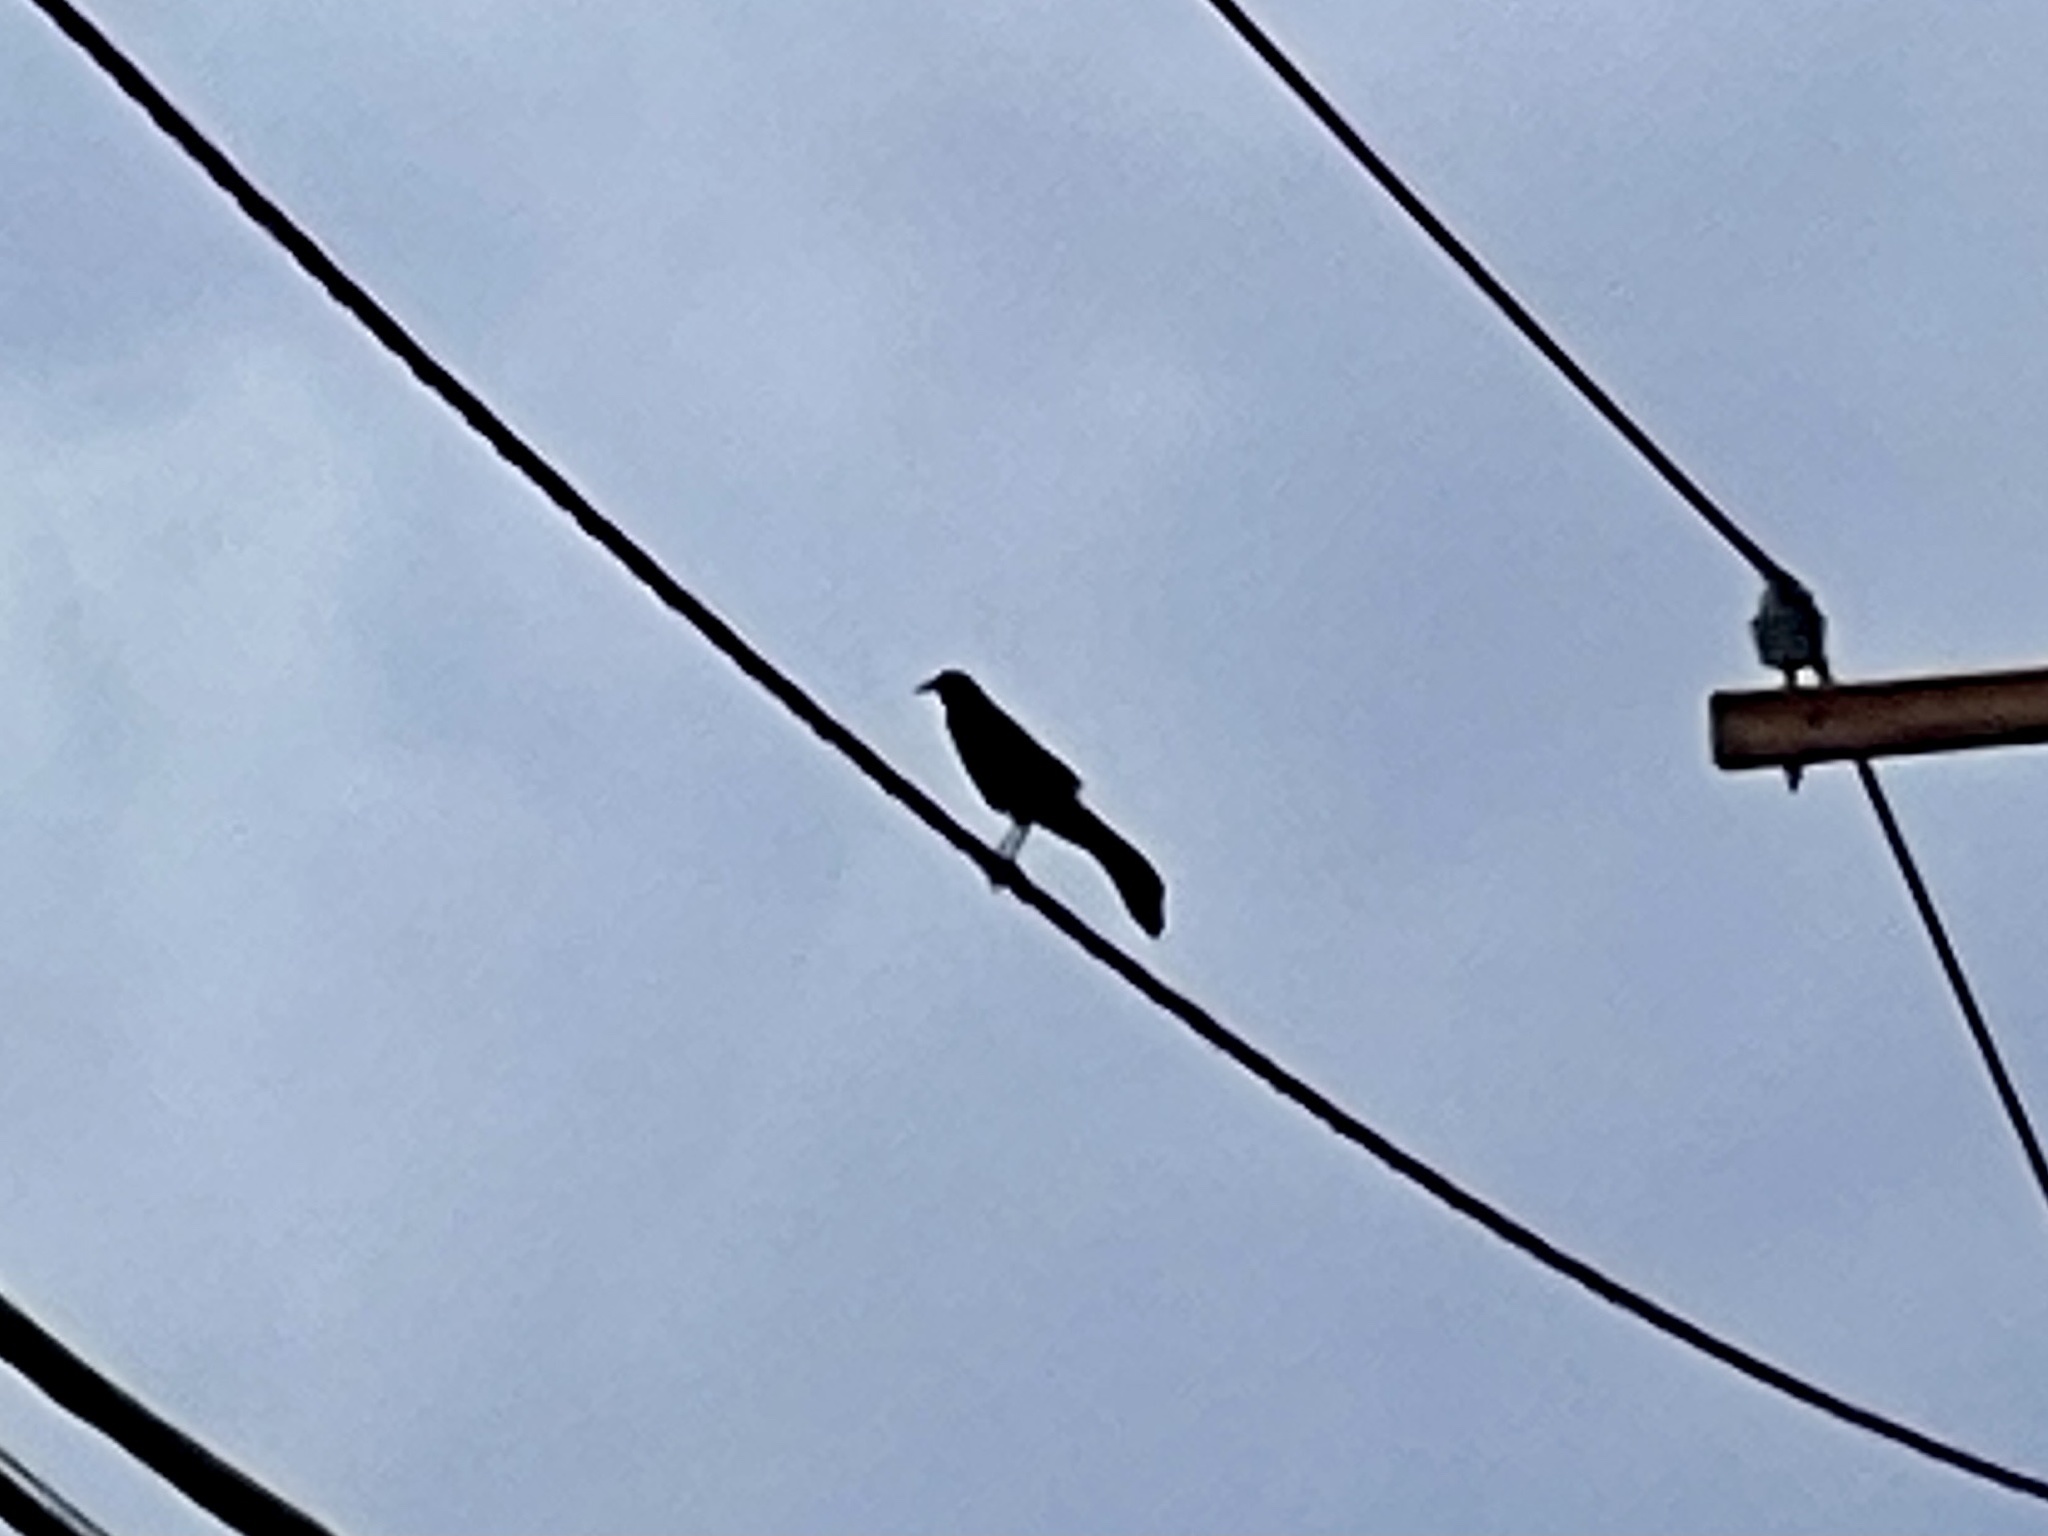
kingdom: Animalia
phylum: Chordata
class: Aves
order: Passeriformes
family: Icteridae
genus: Quiscalus
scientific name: Quiscalus mexicanus
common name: Great-tailed grackle
